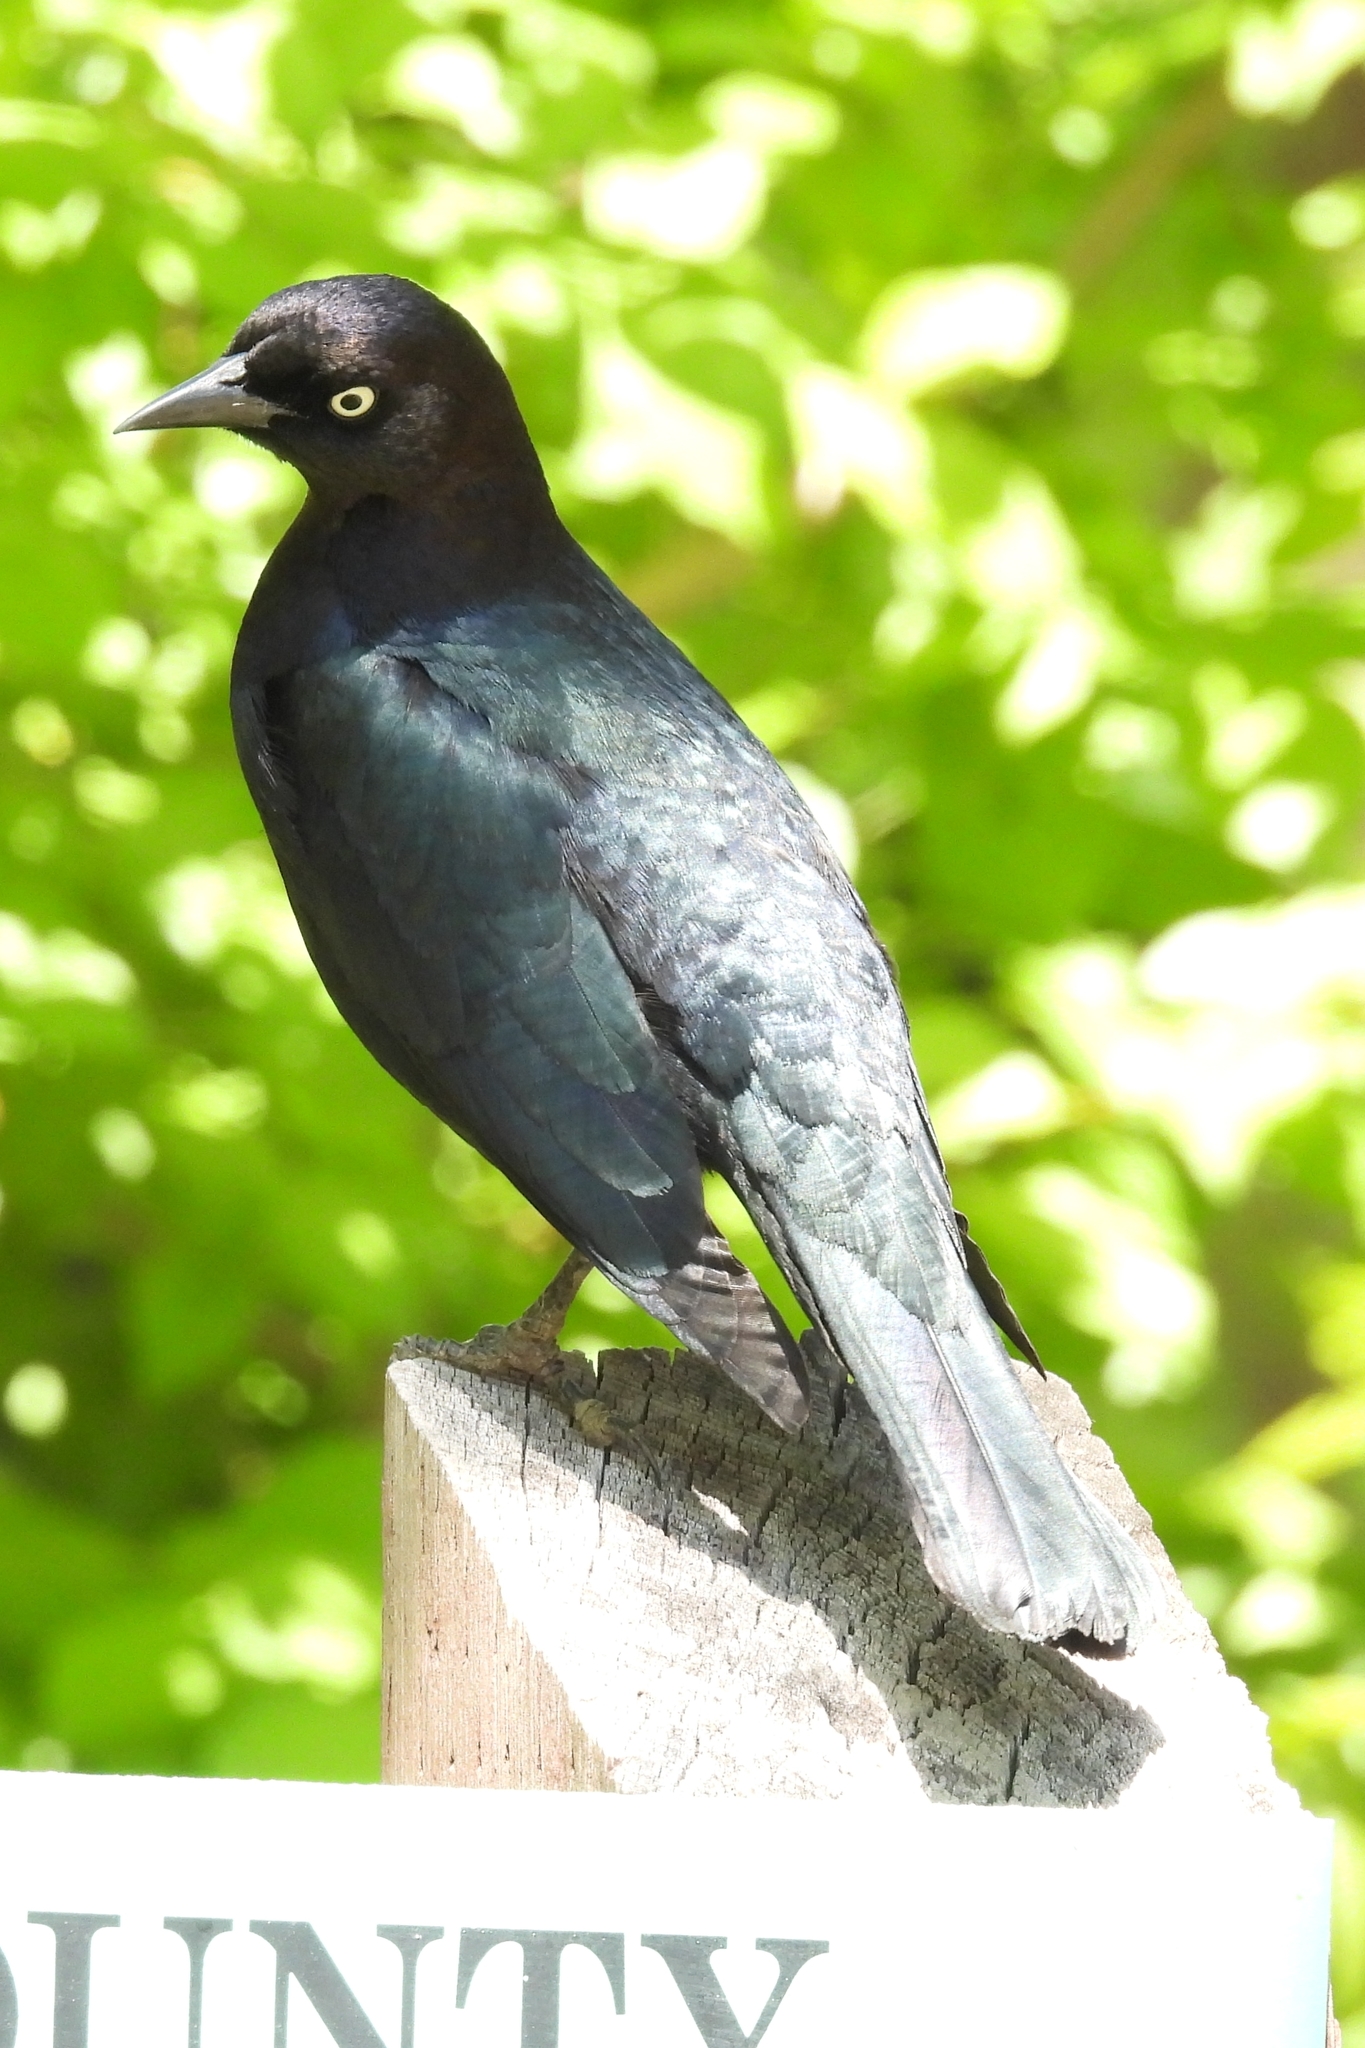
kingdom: Animalia
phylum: Chordata
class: Aves
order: Passeriformes
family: Icteridae
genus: Euphagus
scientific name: Euphagus cyanocephalus
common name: Brewer's blackbird
